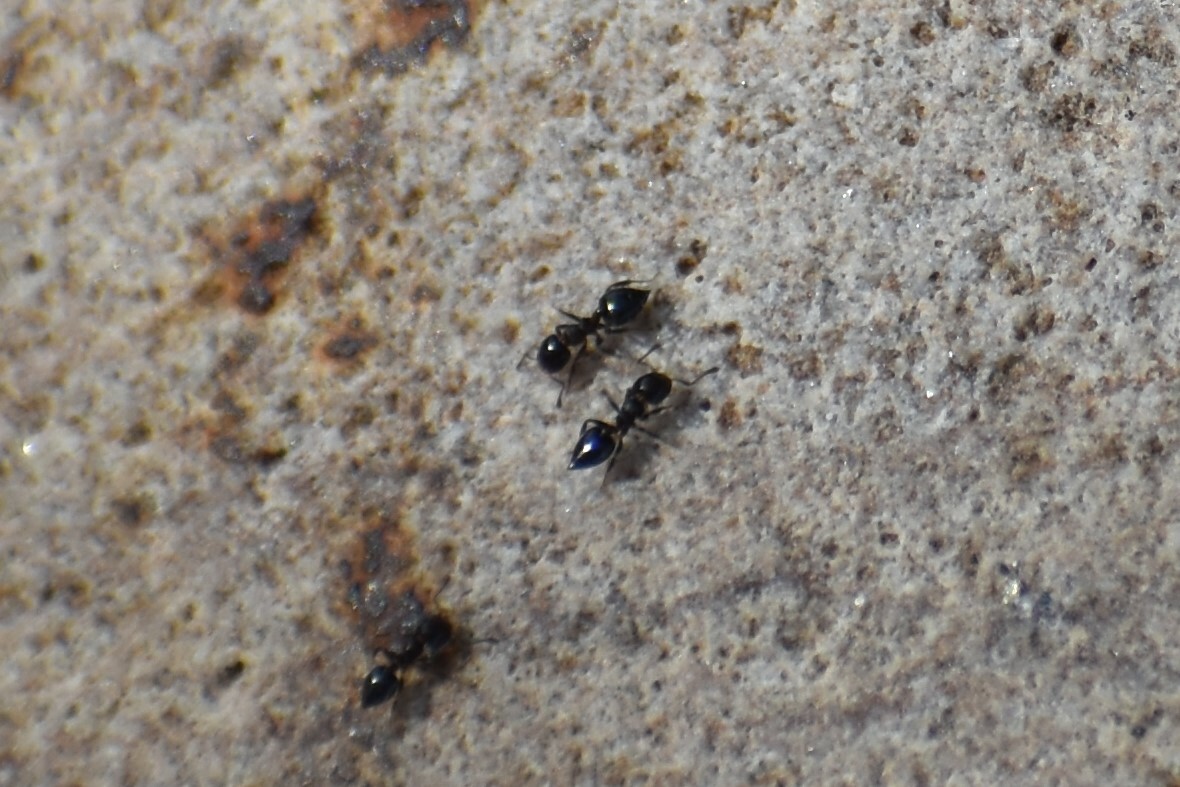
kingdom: Animalia
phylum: Arthropoda
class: Insecta
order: Hymenoptera
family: Formicidae
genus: Crematogaster
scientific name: Crematogaster torosa
